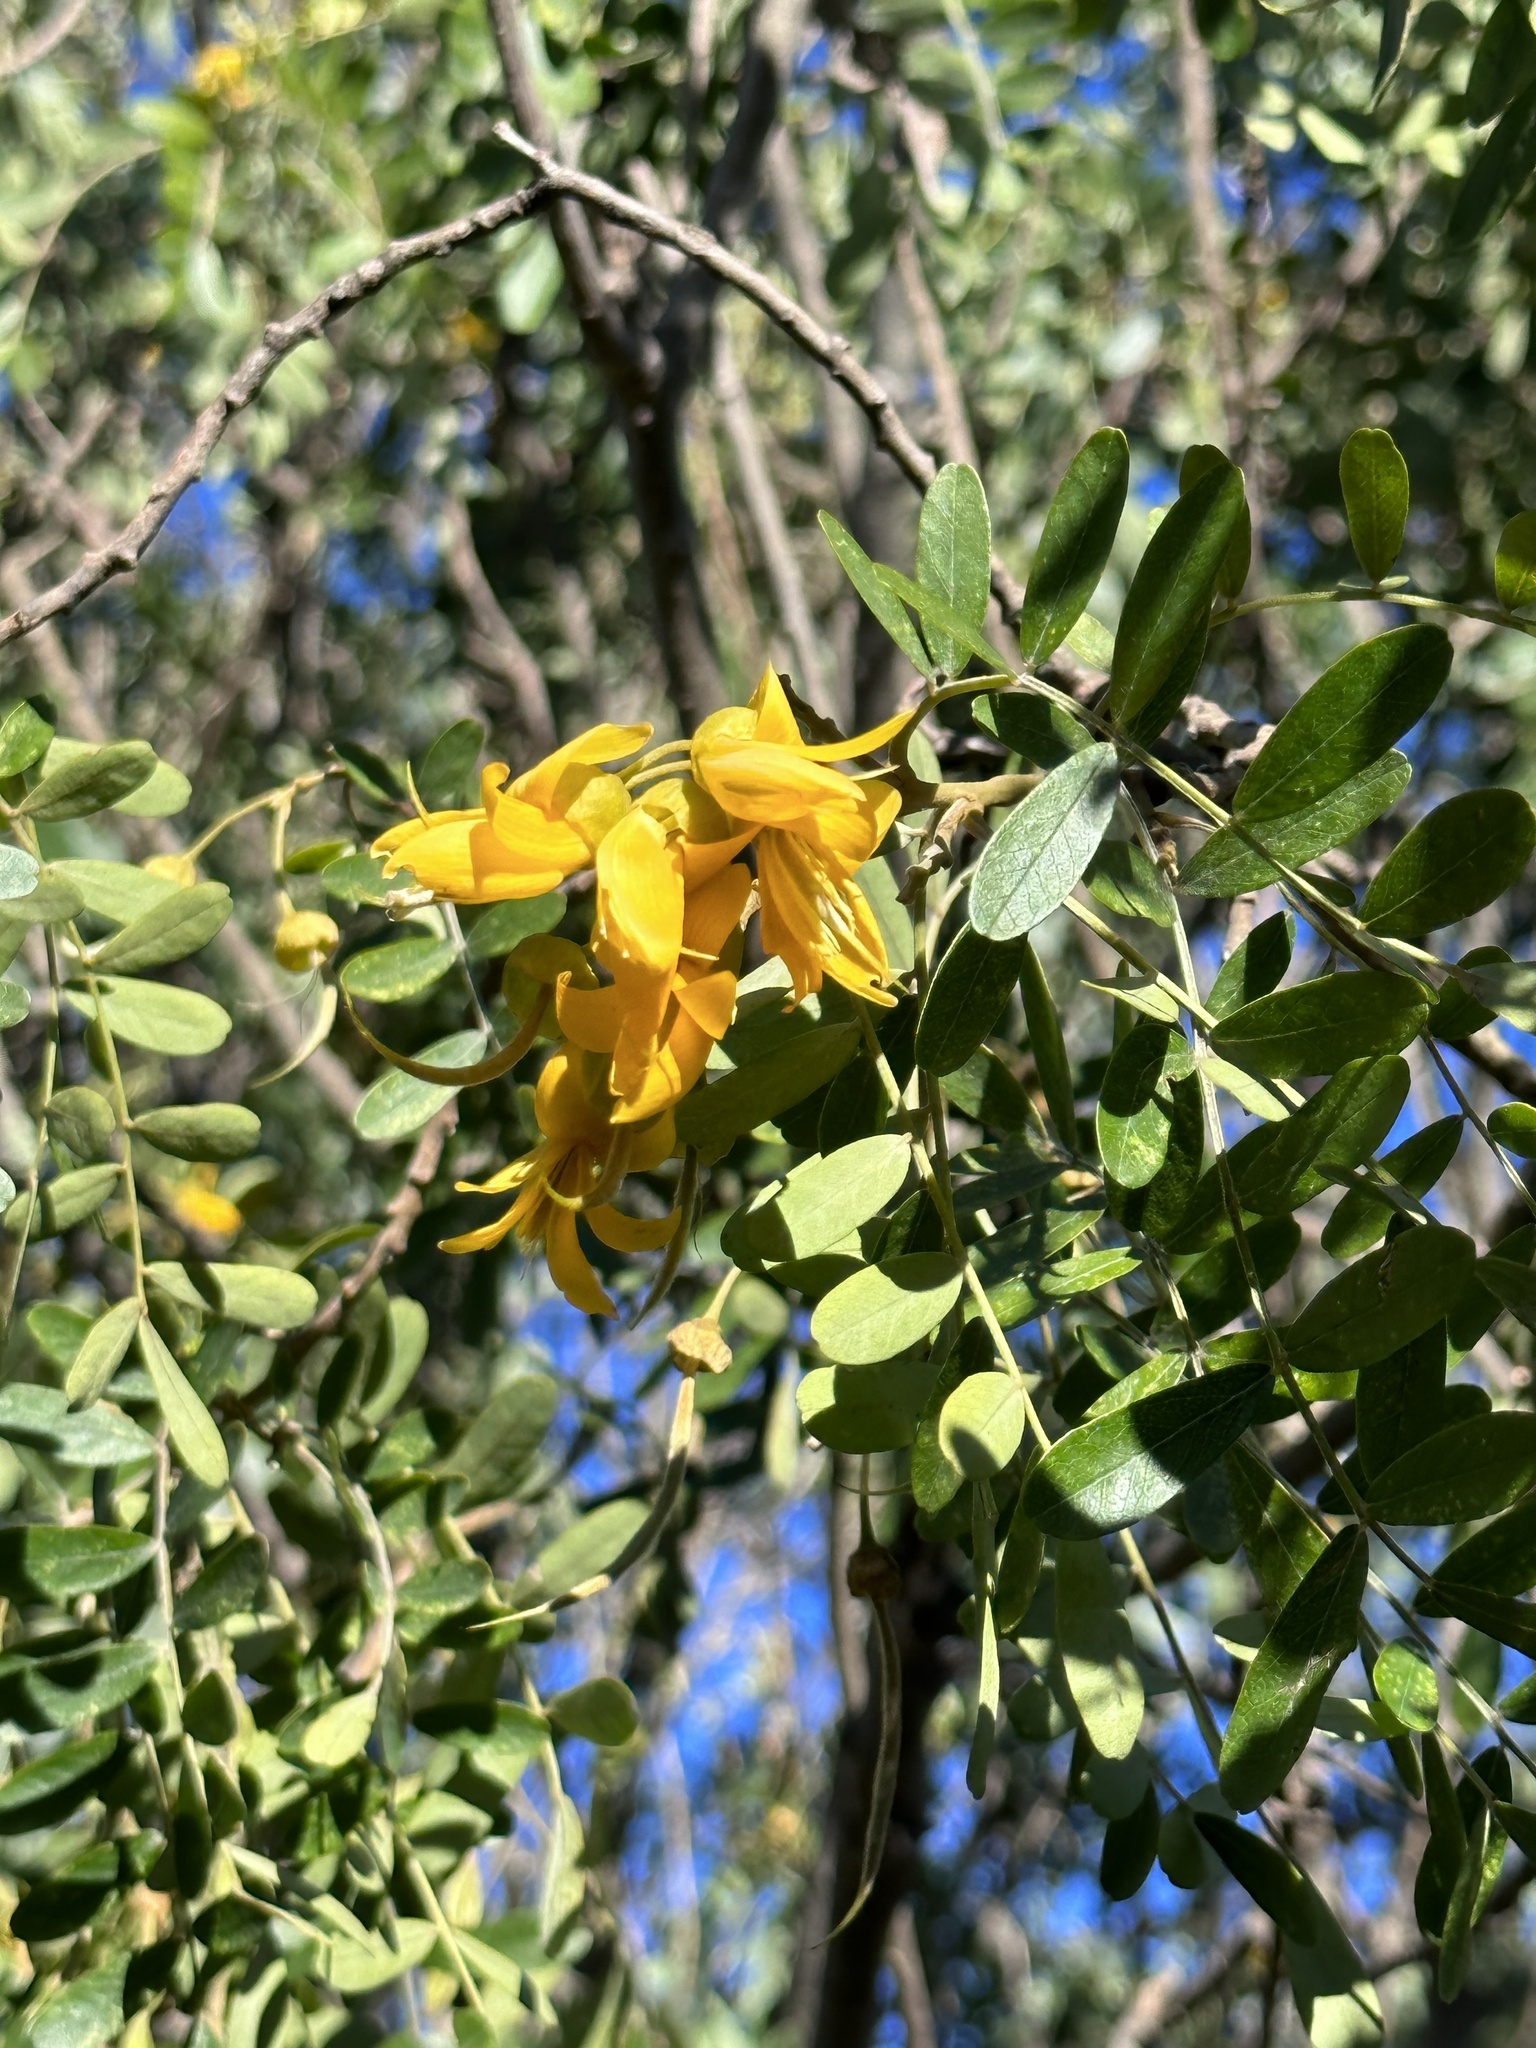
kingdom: Plantae
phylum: Tracheophyta
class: Magnoliopsida
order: Fabales
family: Fabaceae
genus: Sophora
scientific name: Sophora chrysophylla
